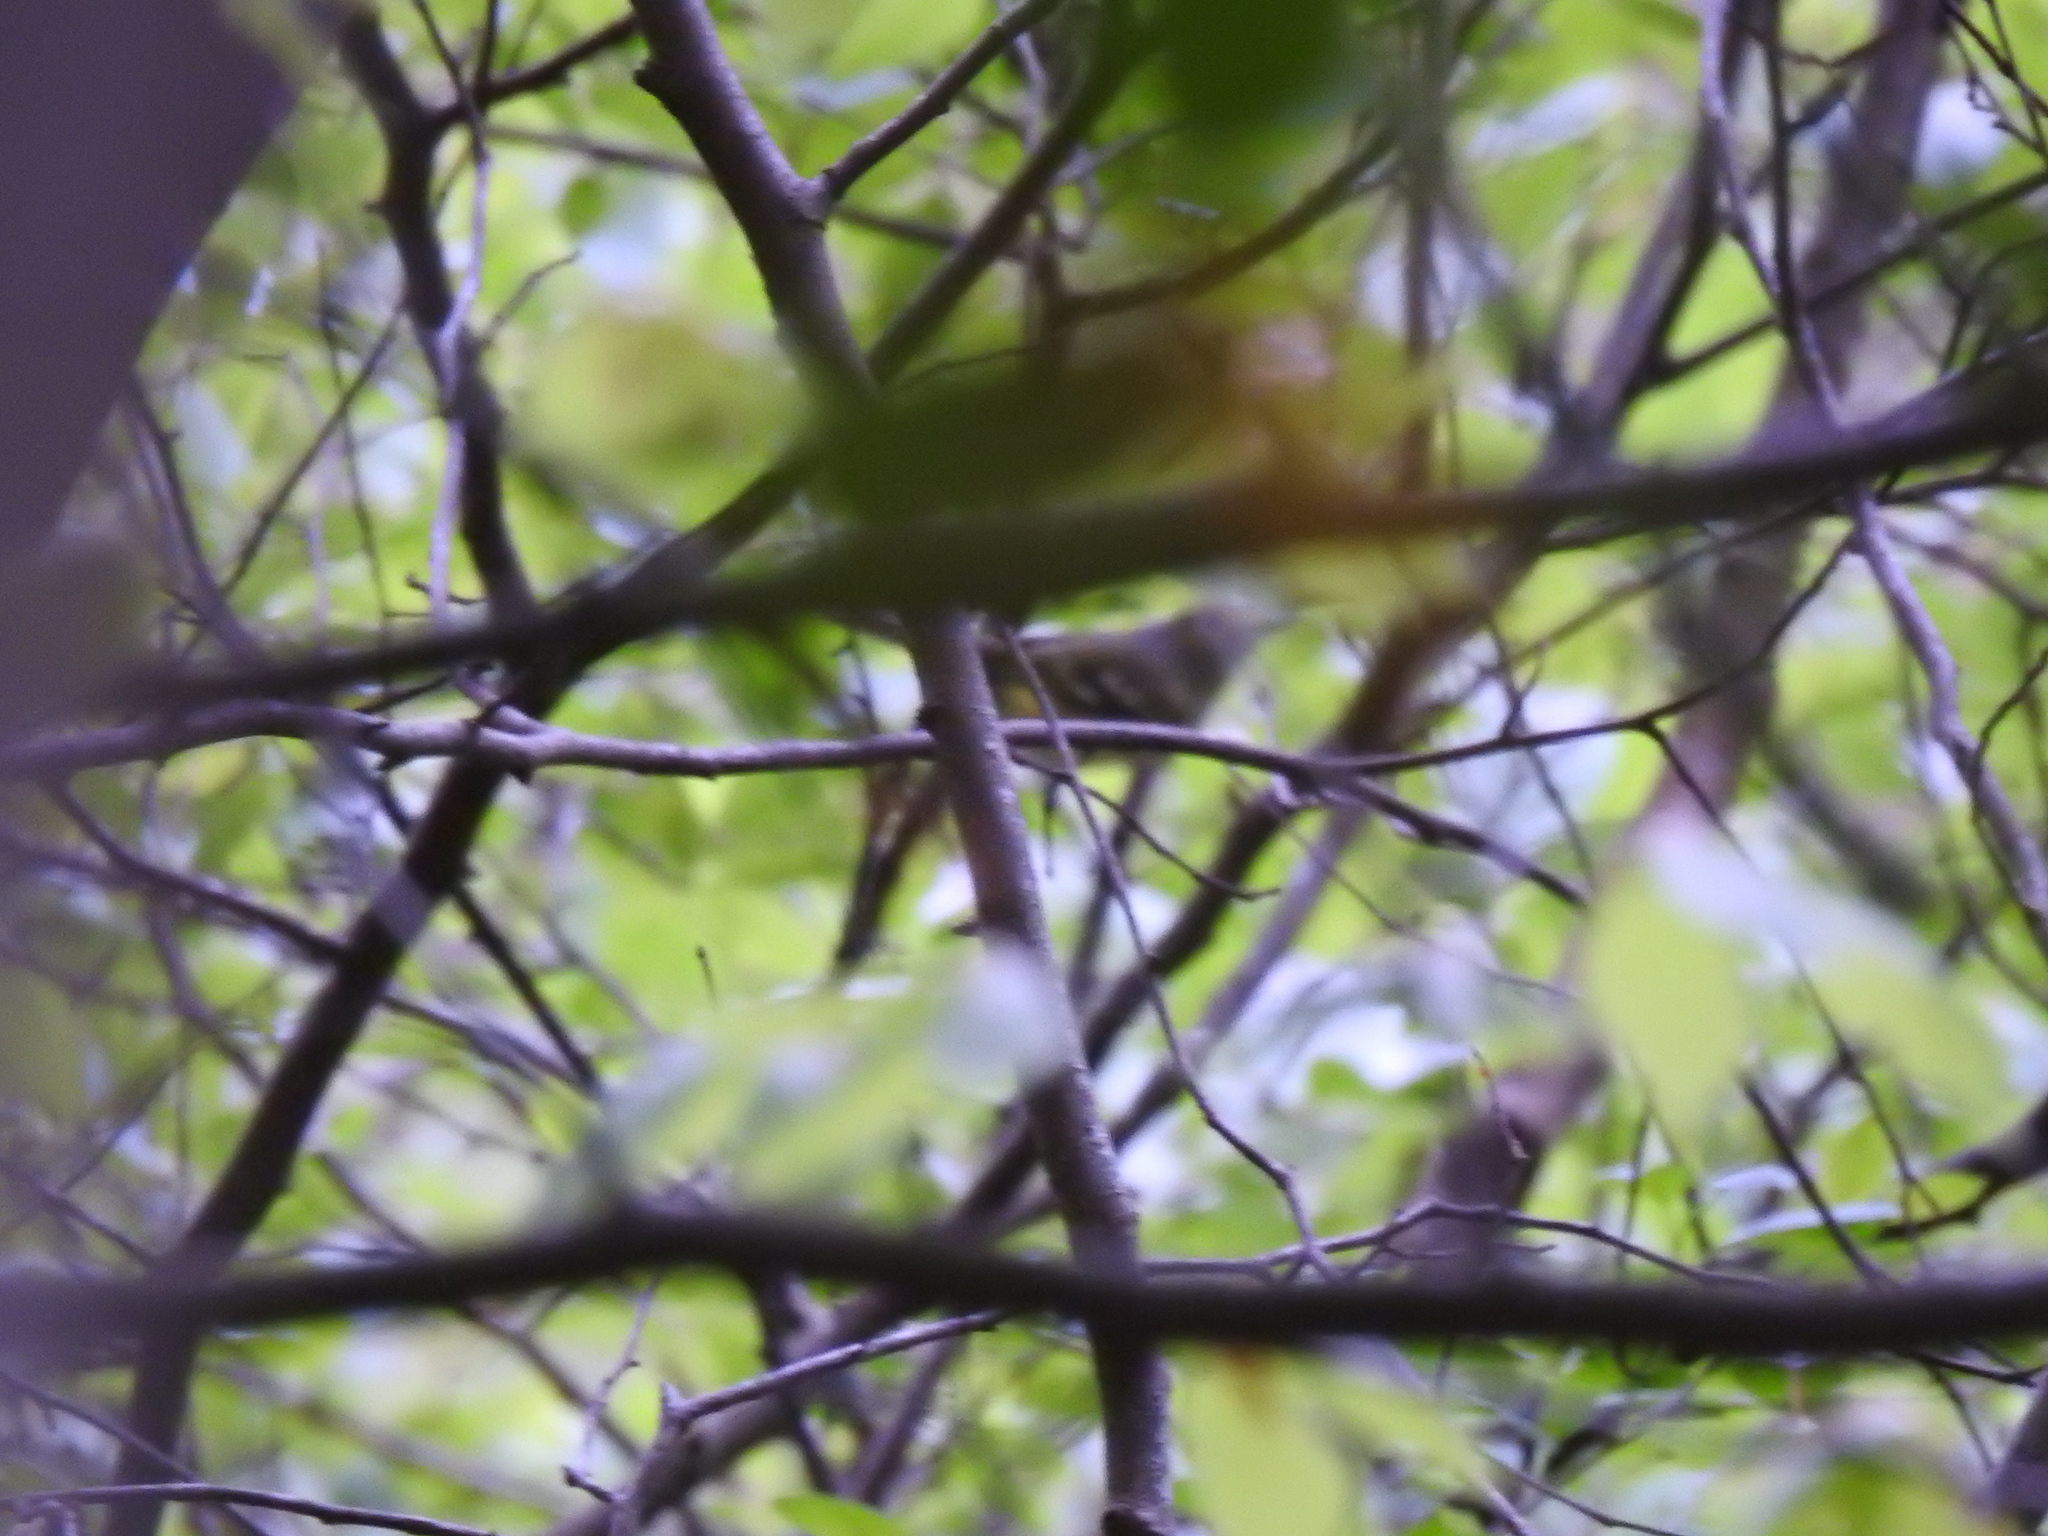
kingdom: Animalia
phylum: Chordata
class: Aves
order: Passeriformes
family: Vireonidae
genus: Vireo
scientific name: Vireo griseus
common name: White-eyed vireo
